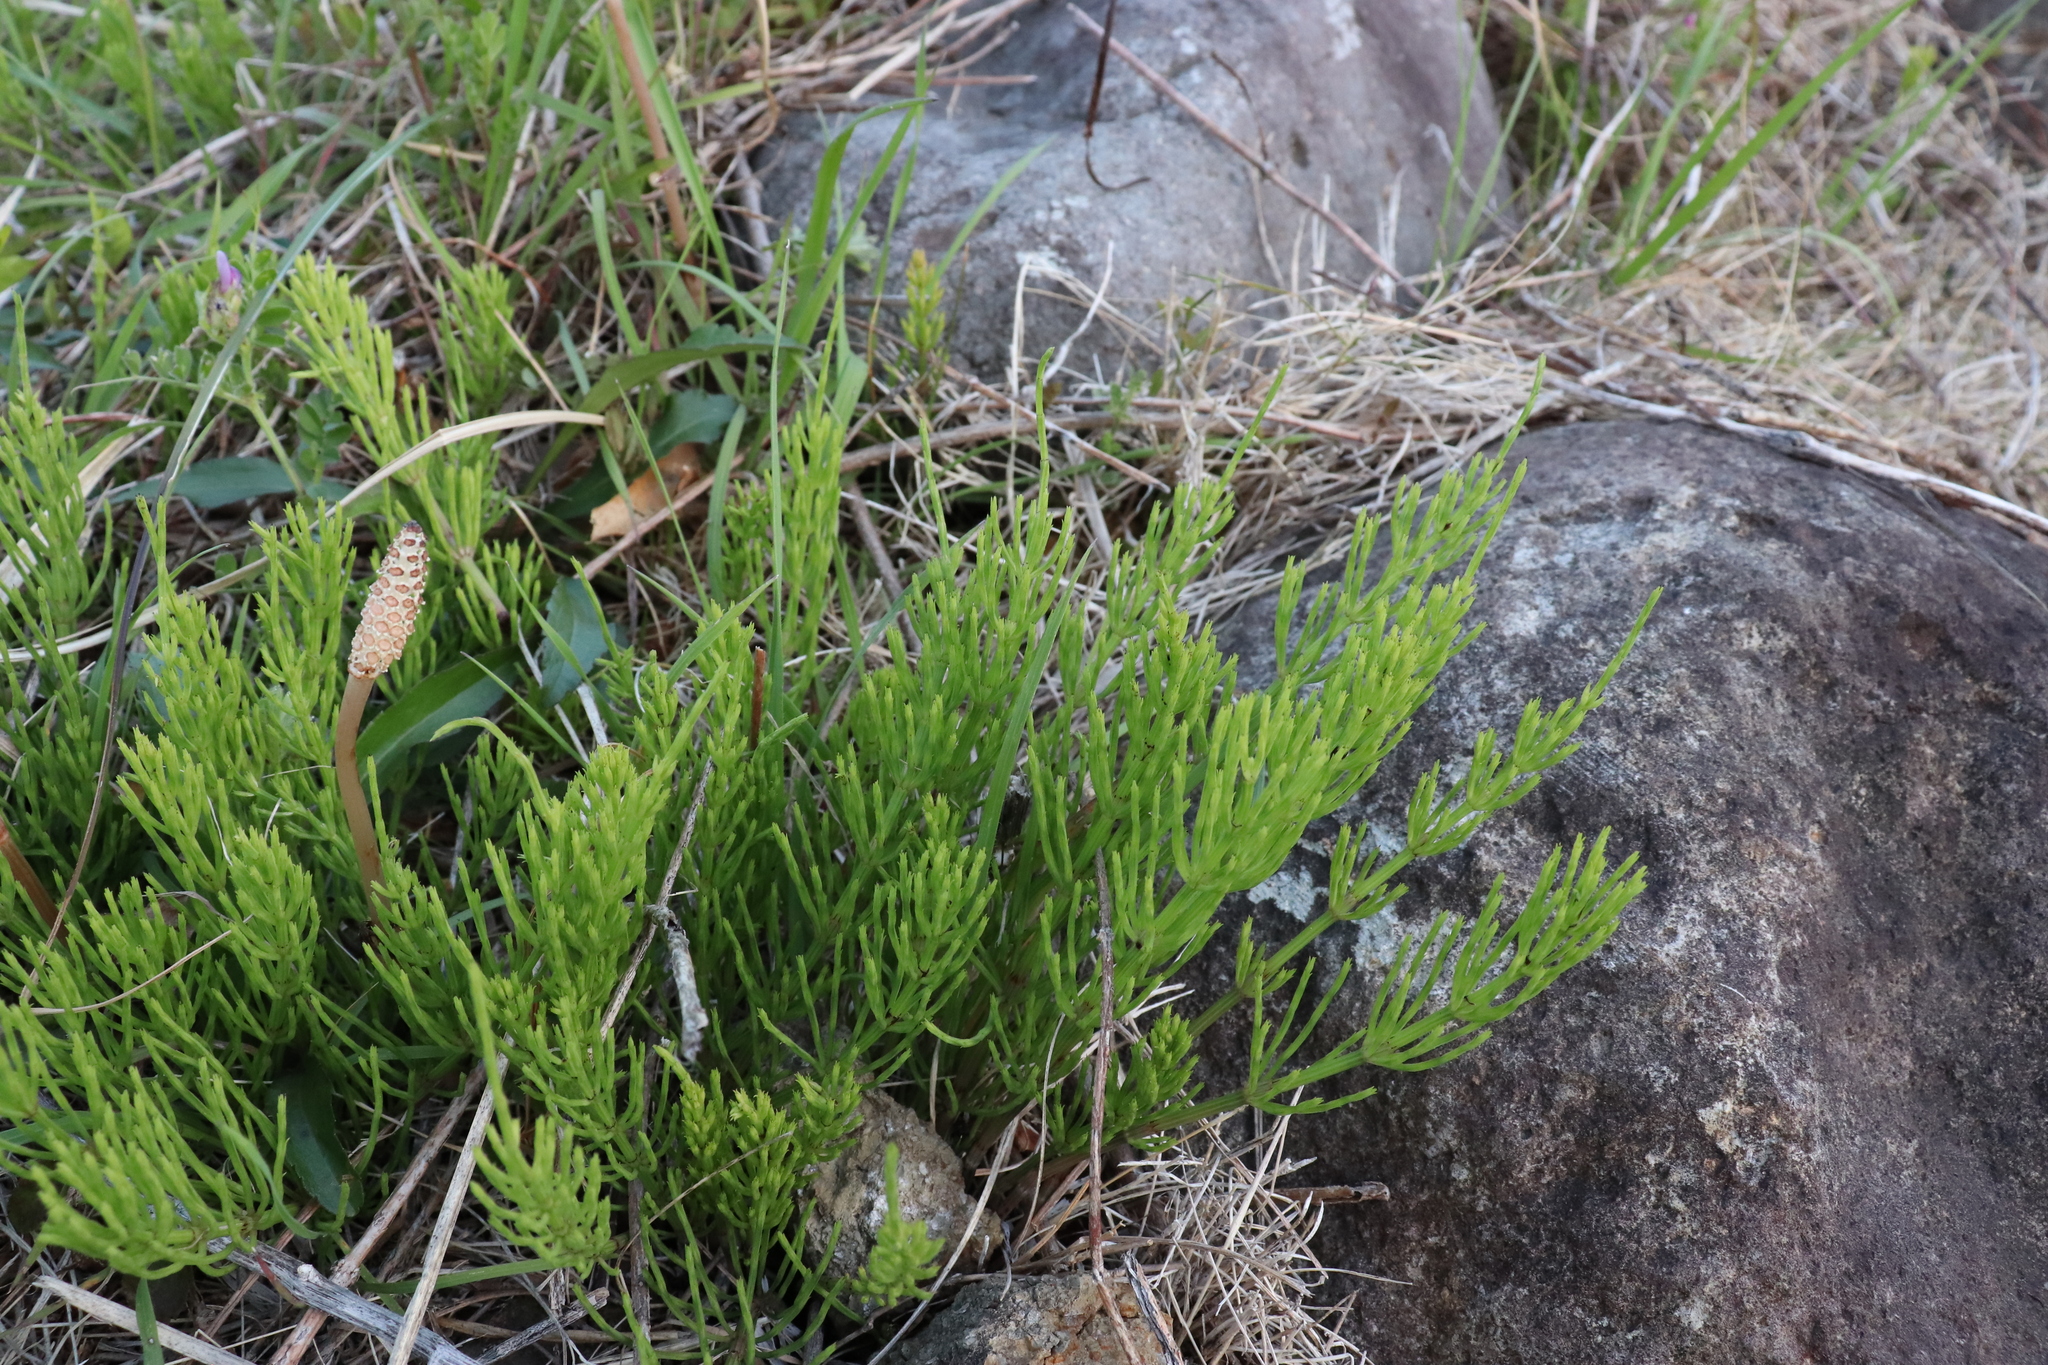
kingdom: Plantae
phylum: Tracheophyta
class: Polypodiopsida
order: Equisetales
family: Equisetaceae
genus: Equisetum
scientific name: Equisetum arvense
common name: Field horsetail
